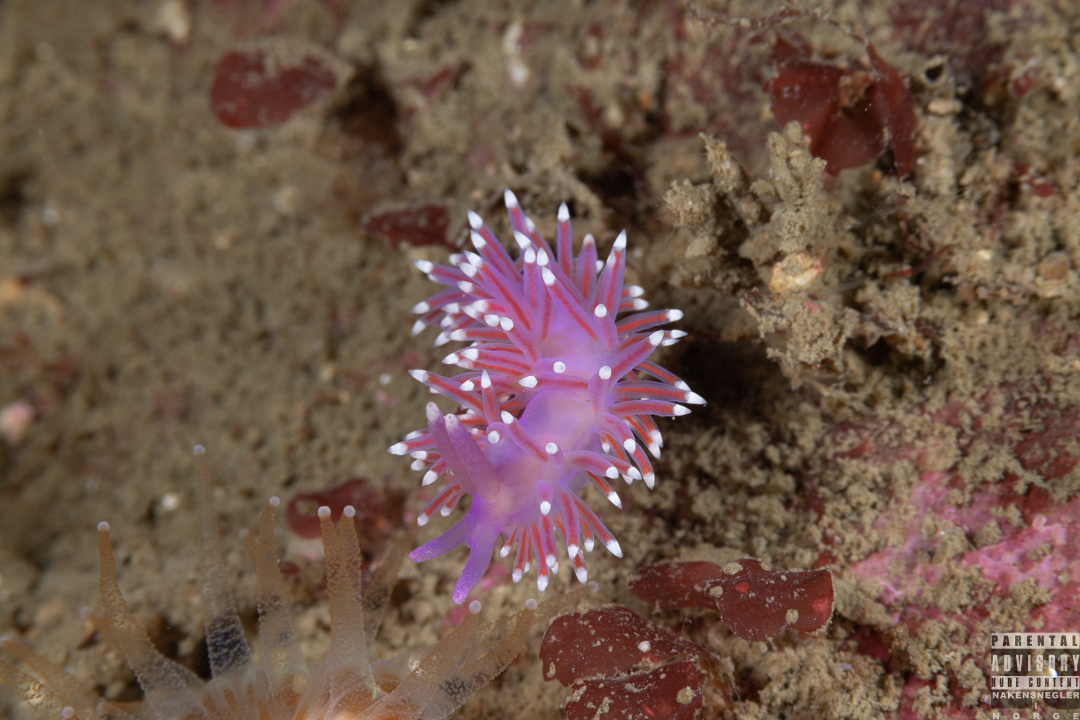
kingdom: Animalia
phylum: Mollusca
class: Gastropoda
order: Nudibranchia
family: Flabellinidae
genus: Edmundsella
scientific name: Edmundsella pedata
